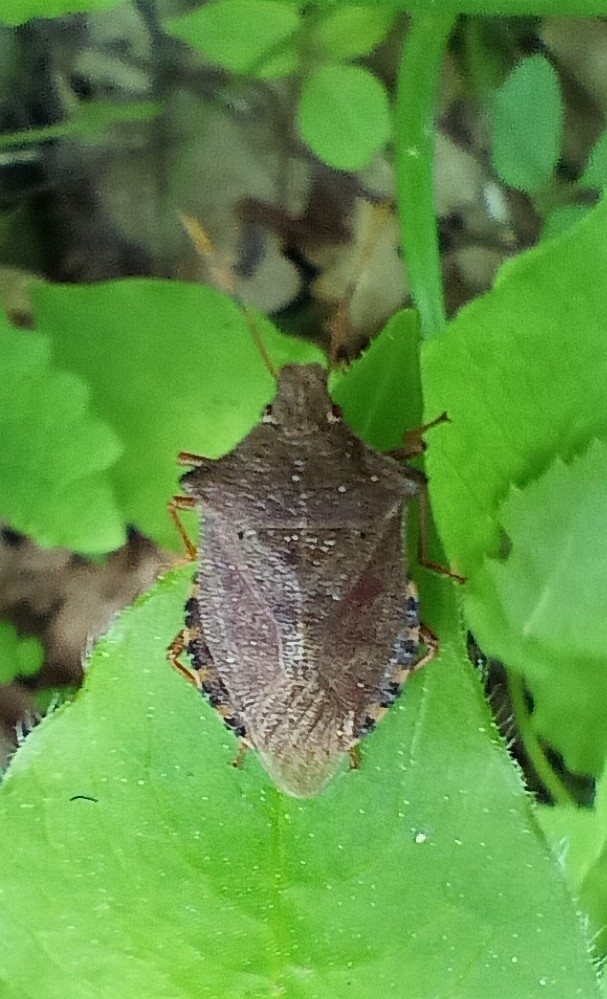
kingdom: Animalia
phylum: Arthropoda
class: Insecta
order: Hemiptera
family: Pentatomidae
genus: Arma
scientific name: Arma custos
